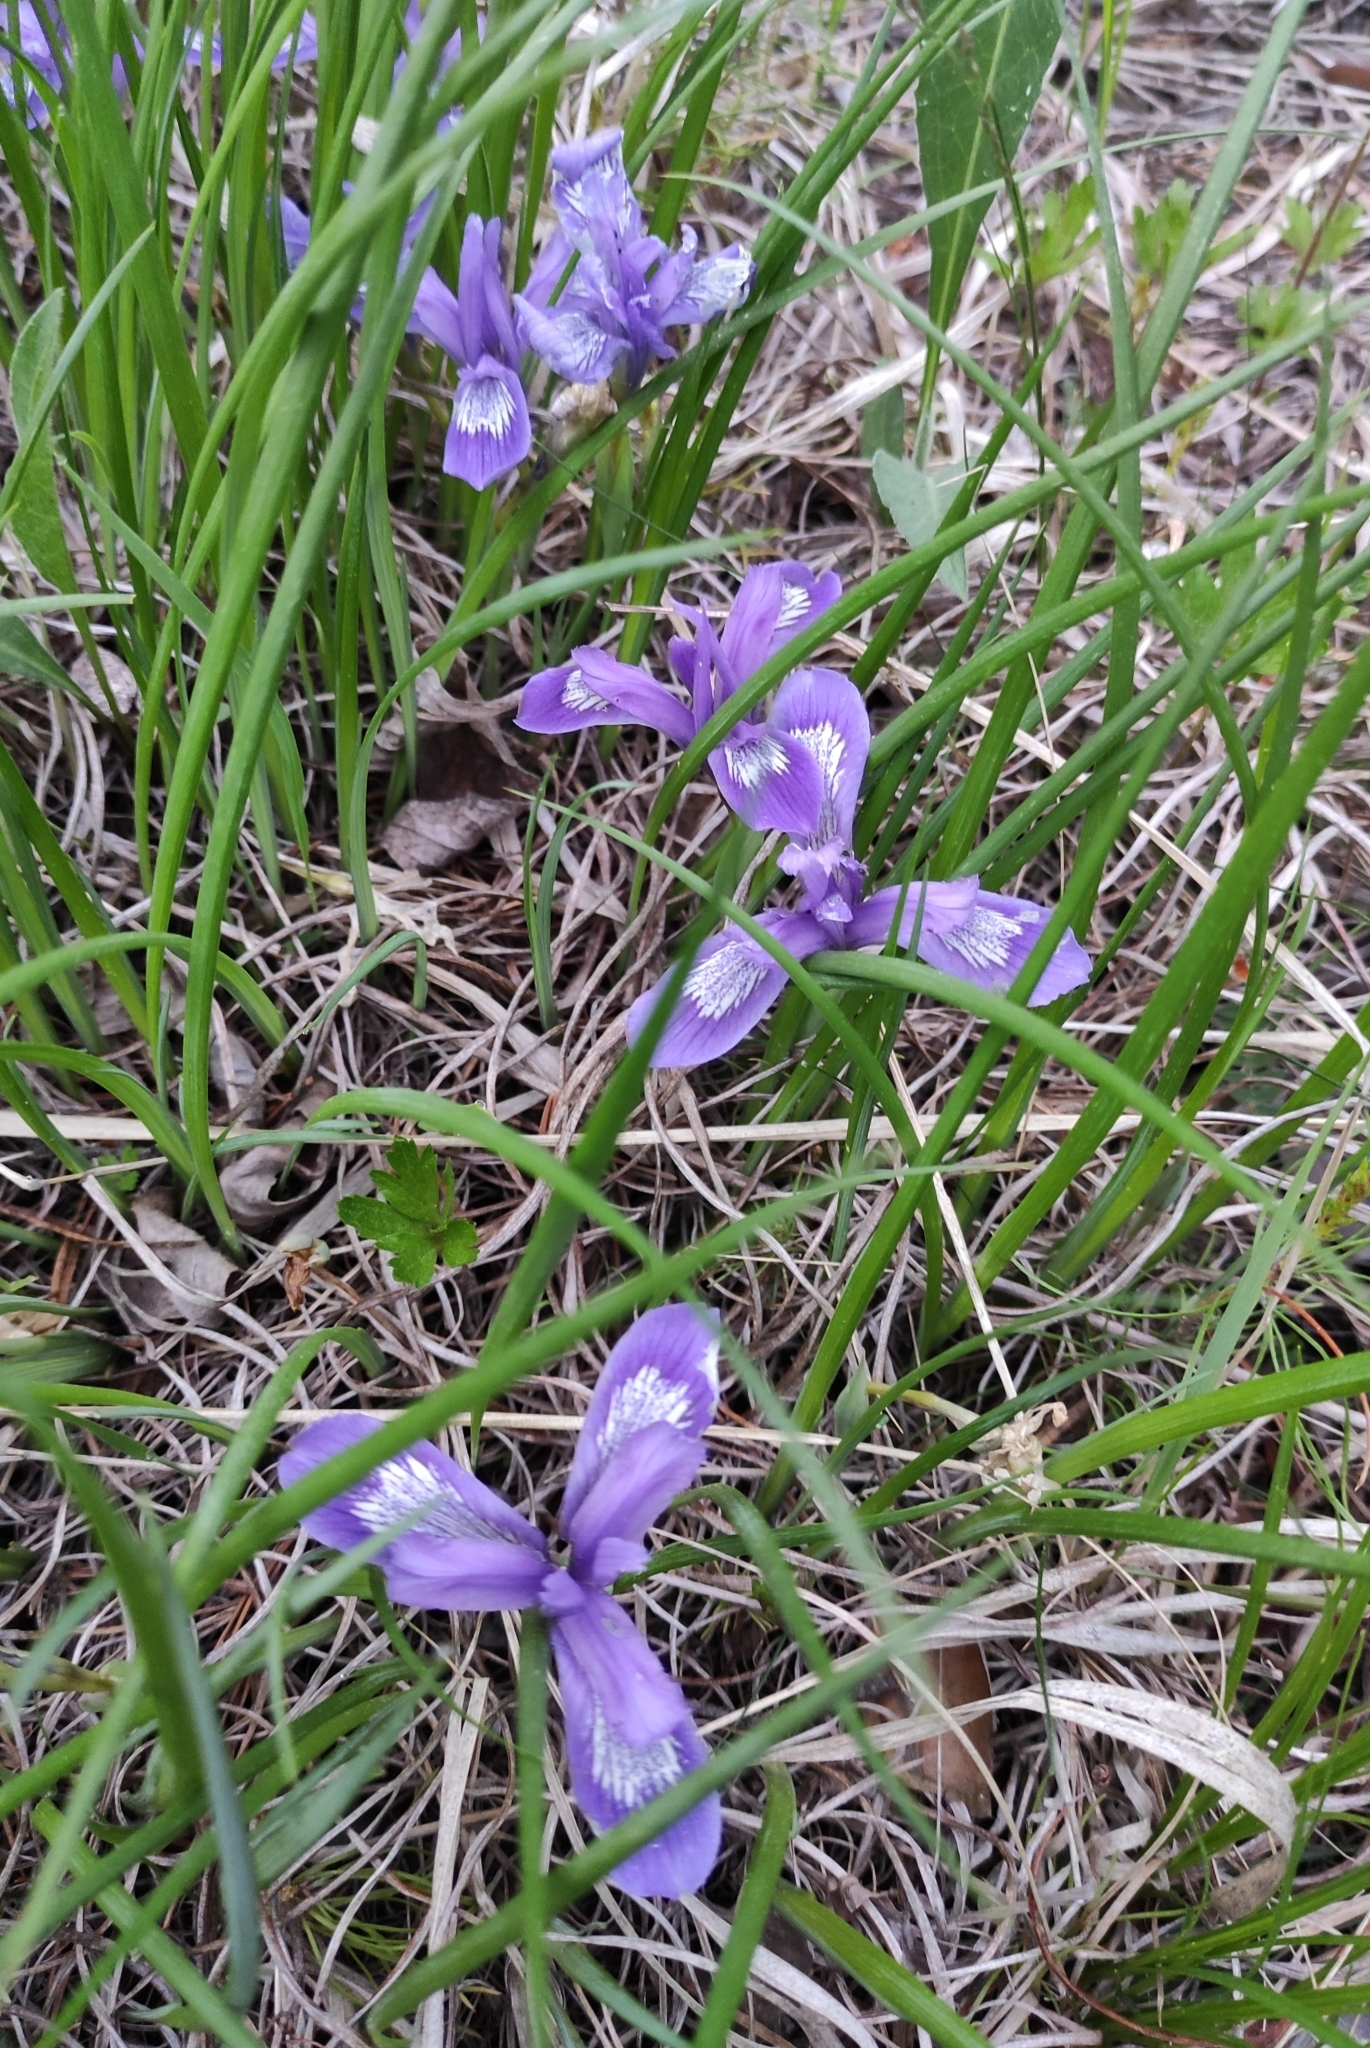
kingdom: Plantae
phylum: Tracheophyta
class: Liliopsida
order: Asparagales
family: Iridaceae
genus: Iris
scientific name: Iris ruthenica
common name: Purple-bract iris
